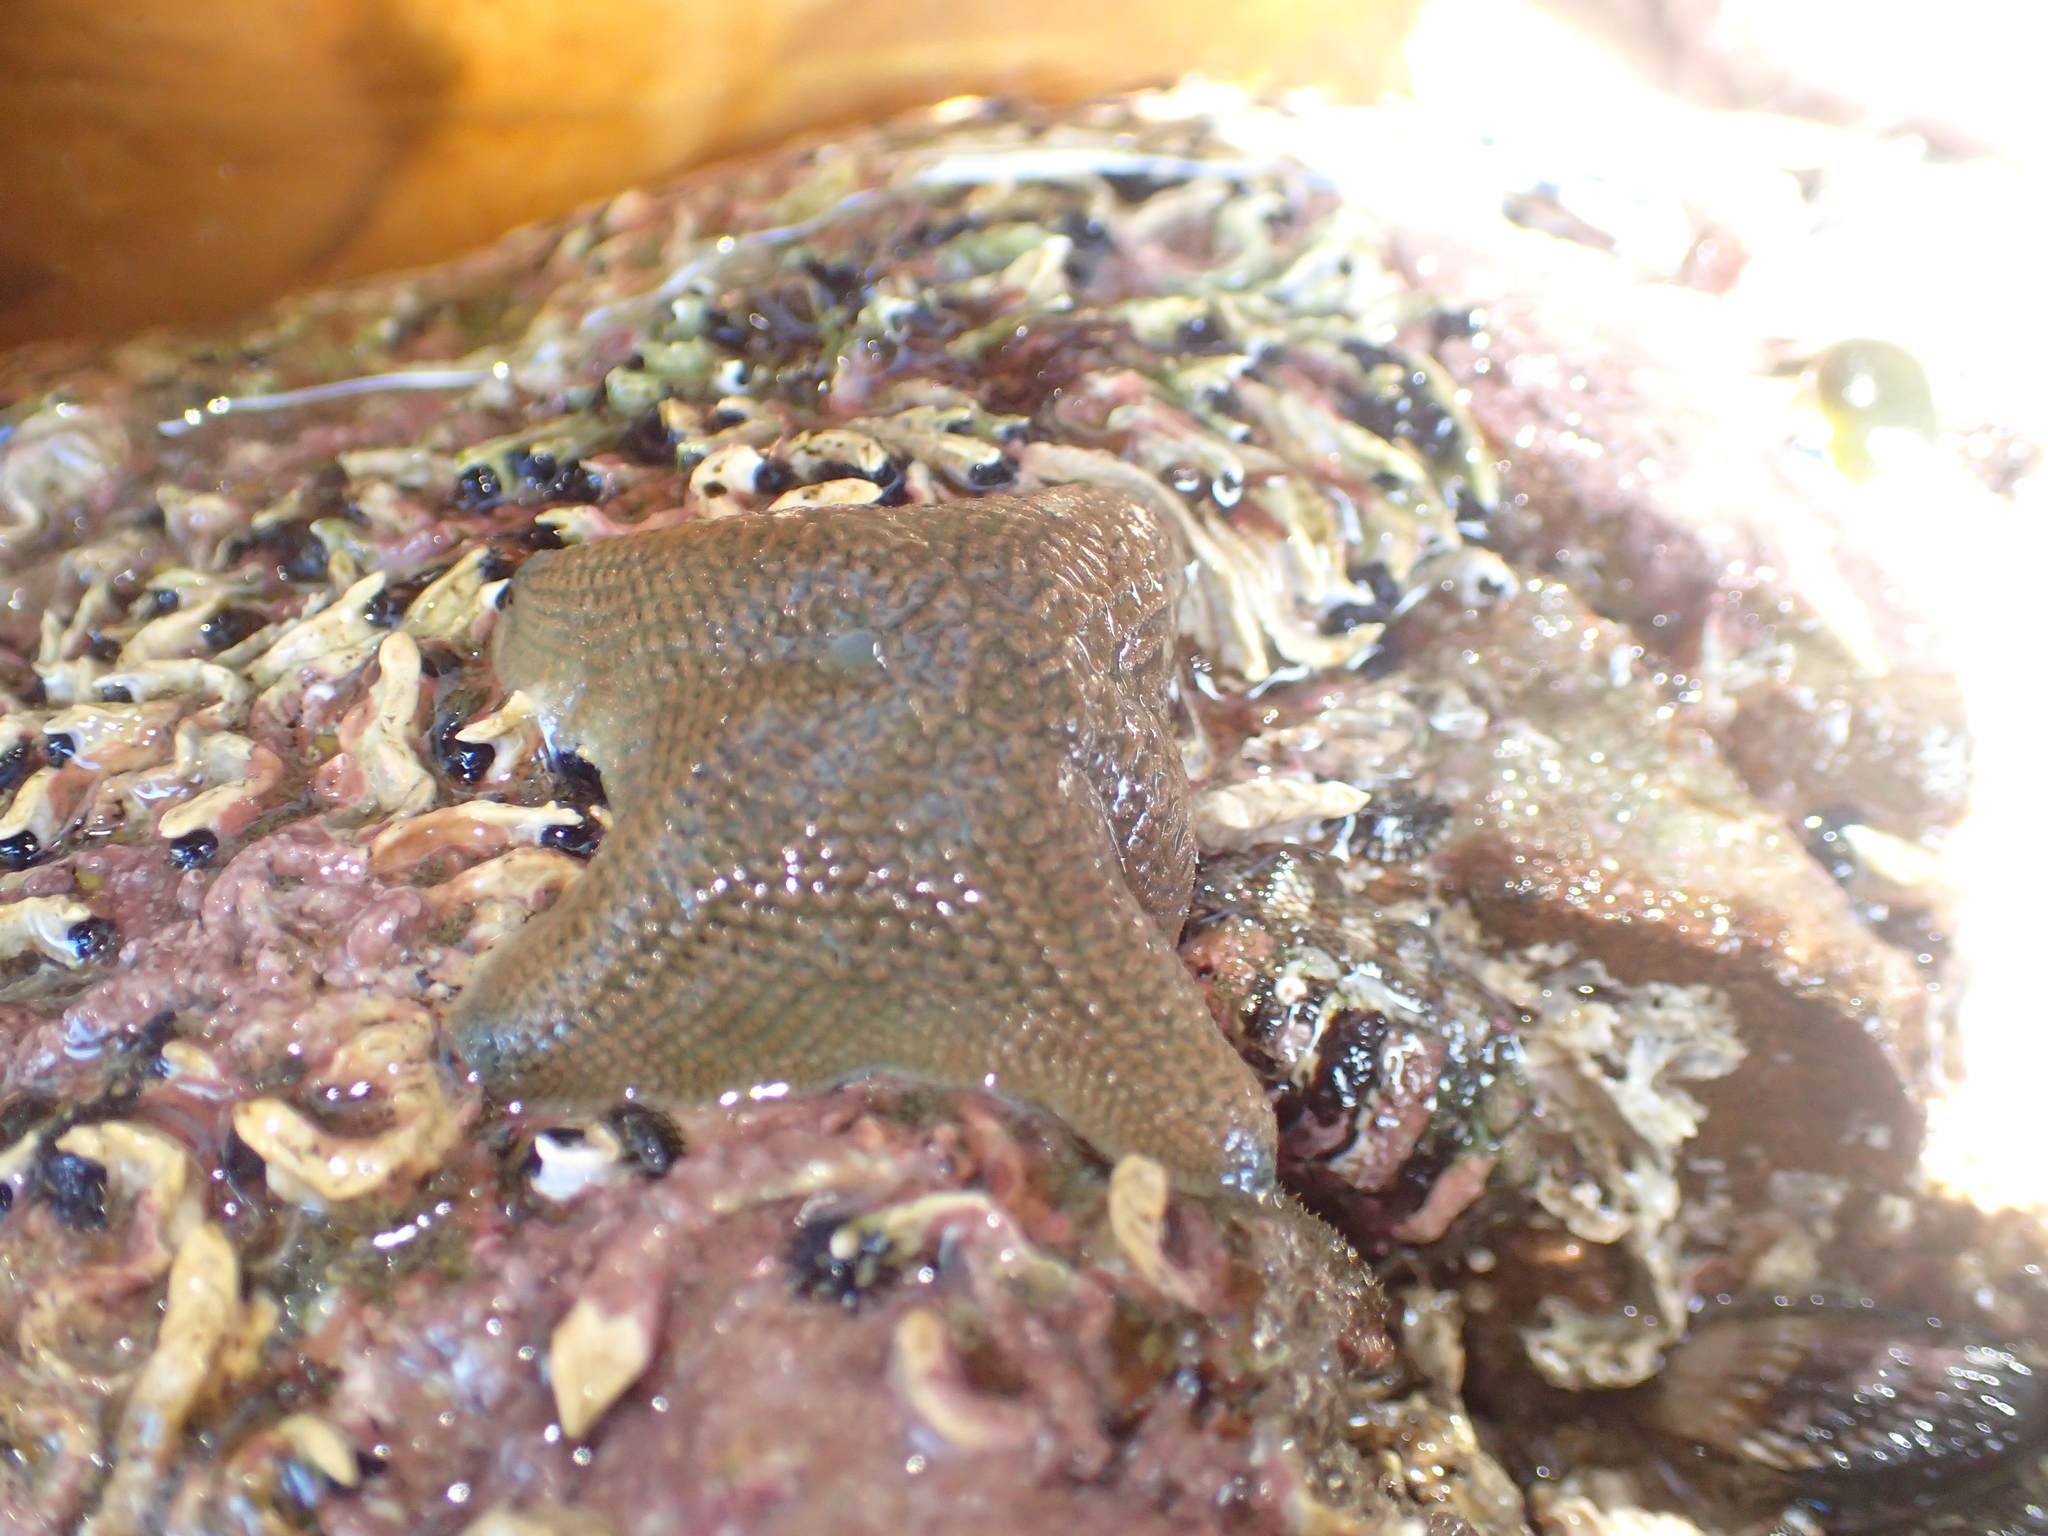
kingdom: Animalia
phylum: Echinodermata
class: Asteroidea
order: Valvatida
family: Asterinidae
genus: Patiriella
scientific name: Patiriella regularis
